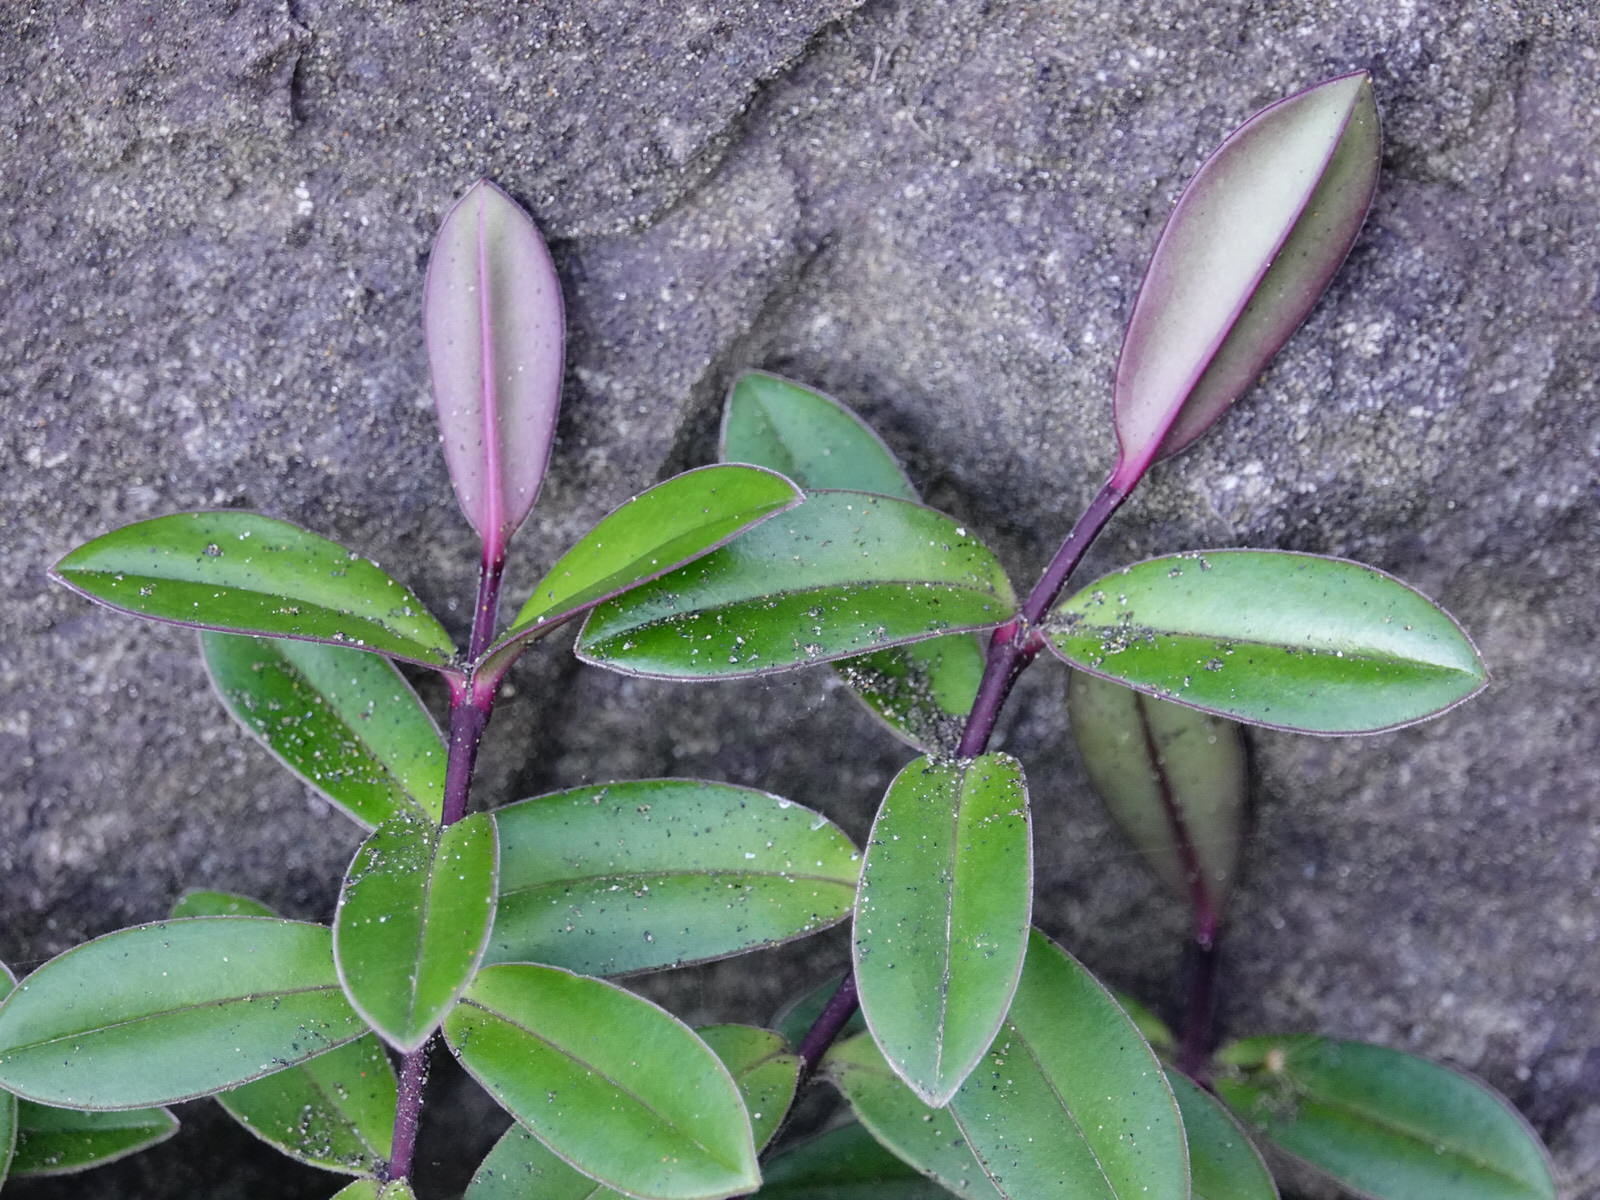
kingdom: Plantae
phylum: Tracheophyta
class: Magnoliopsida
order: Lamiales
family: Plantaginaceae
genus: Veronica
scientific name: Veronica obtusata
